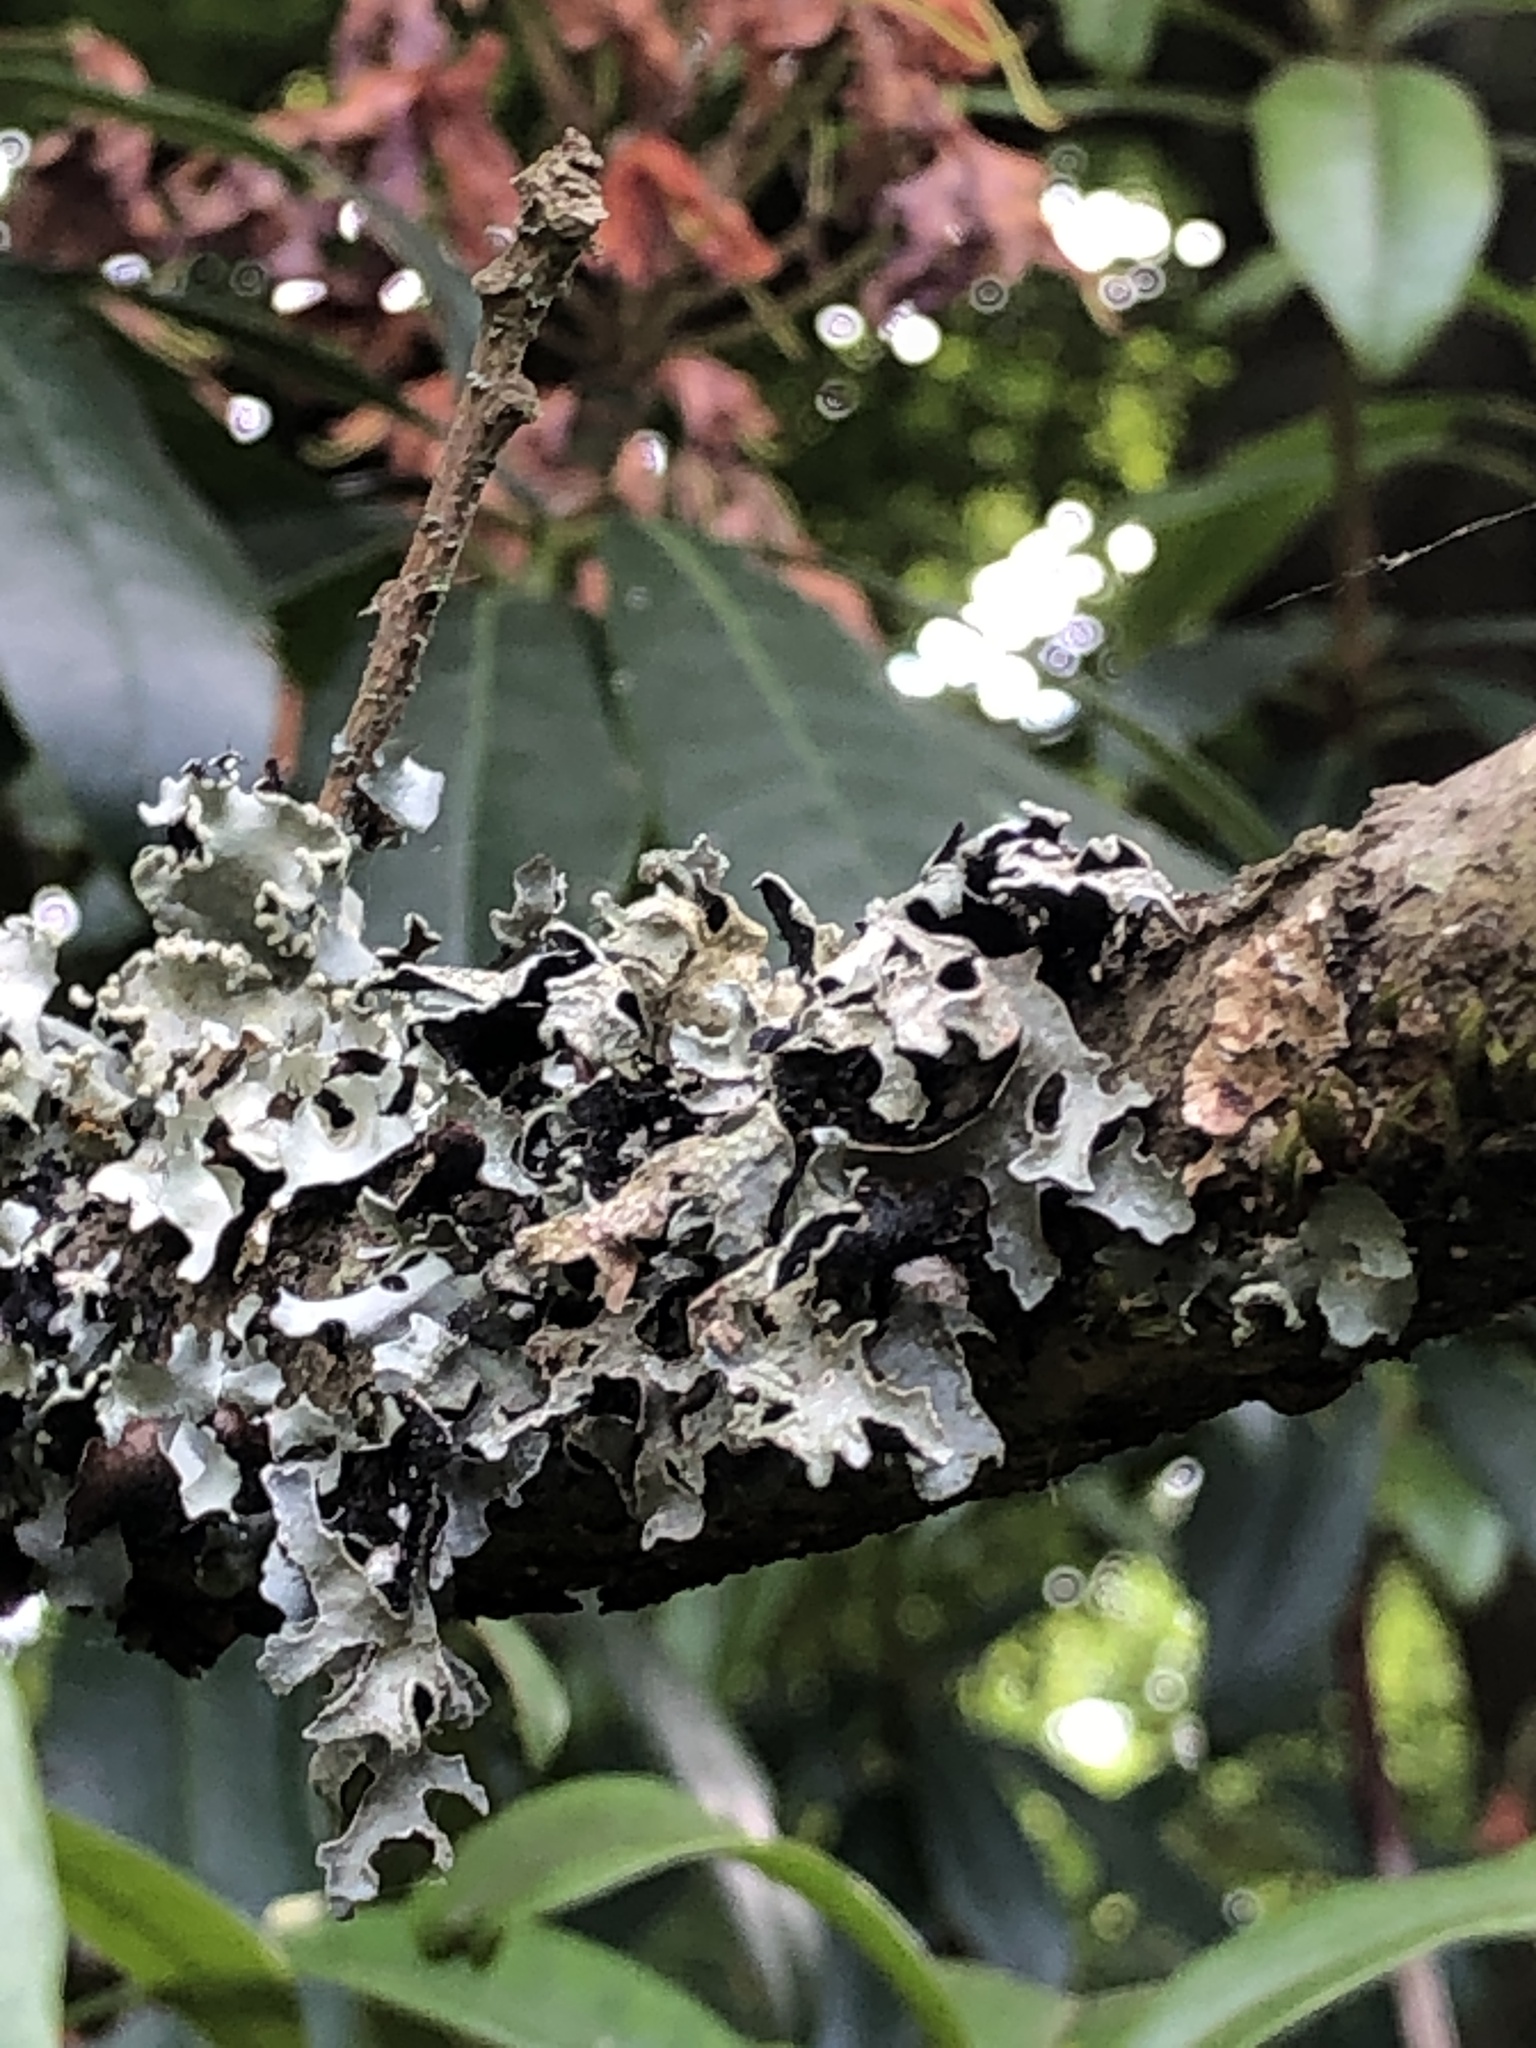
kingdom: Fungi
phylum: Ascomycota
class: Lecanoromycetes
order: Lecanorales
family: Parmeliaceae
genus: Parmelia
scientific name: Parmelia sulcata
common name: Netted shield lichen
